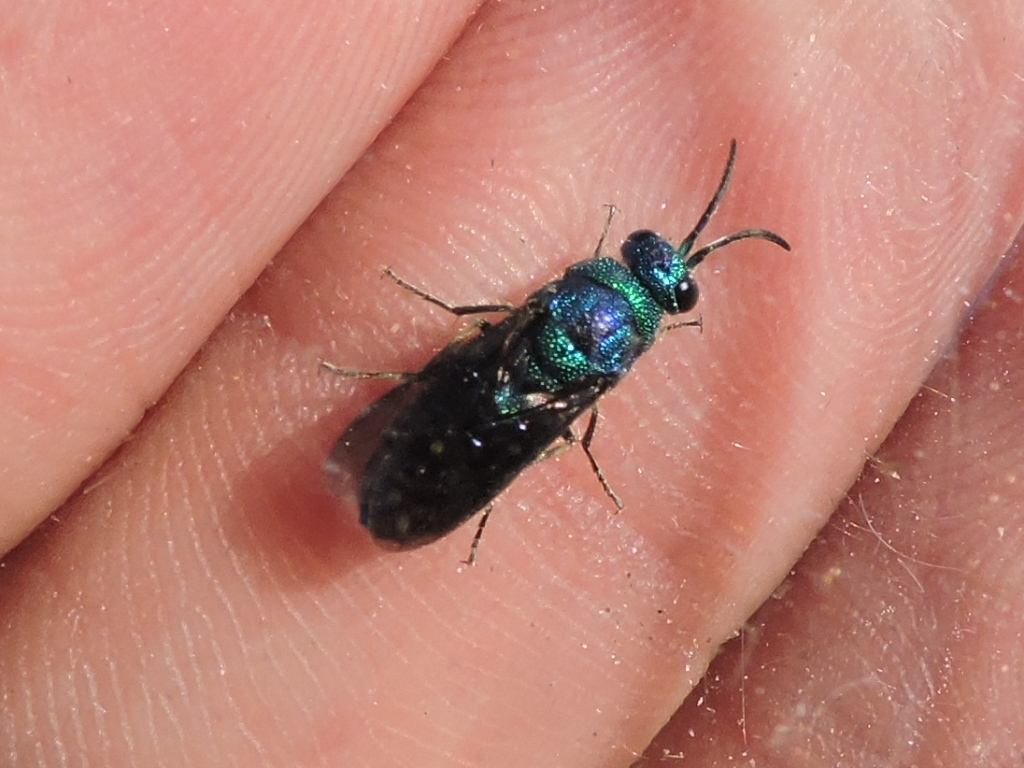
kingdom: Animalia
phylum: Arthropoda
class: Insecta
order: Hymenoptera
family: Chrysididae
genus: Chrysis
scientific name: Chrysis angolensis
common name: Cuckoo wasp
